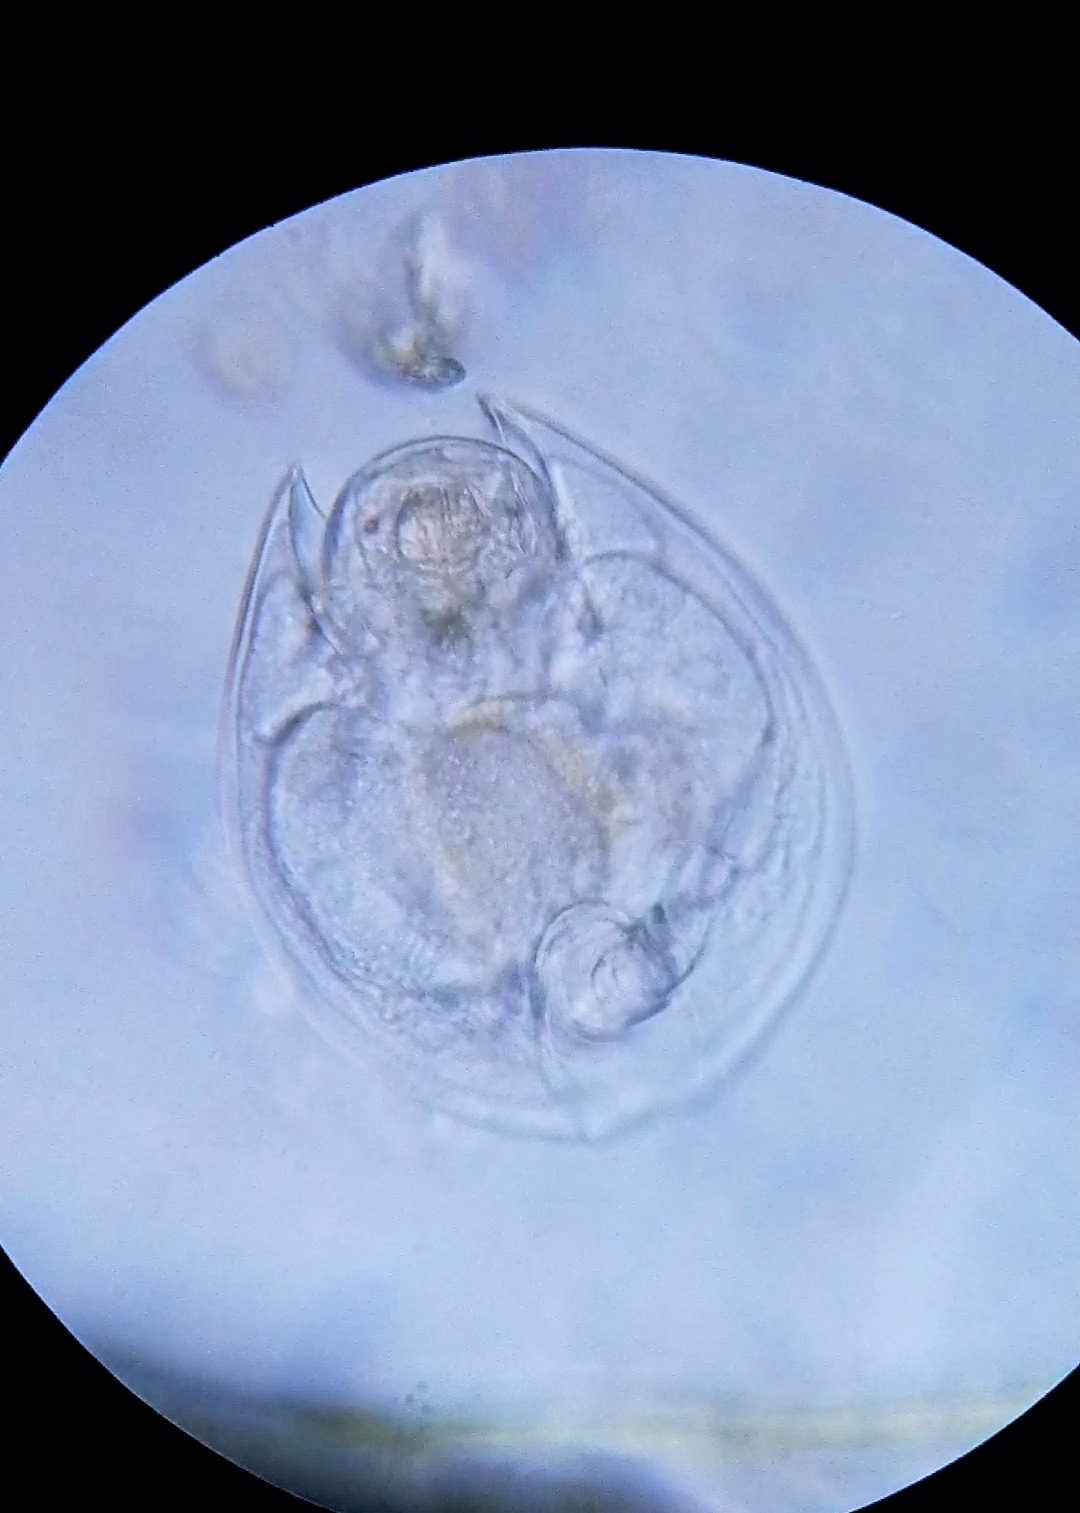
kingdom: Animalia
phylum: Rotifera
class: Eurotatoria
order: Ploima
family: Lepadellidae
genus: Lepadella
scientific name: Lepadella patella
